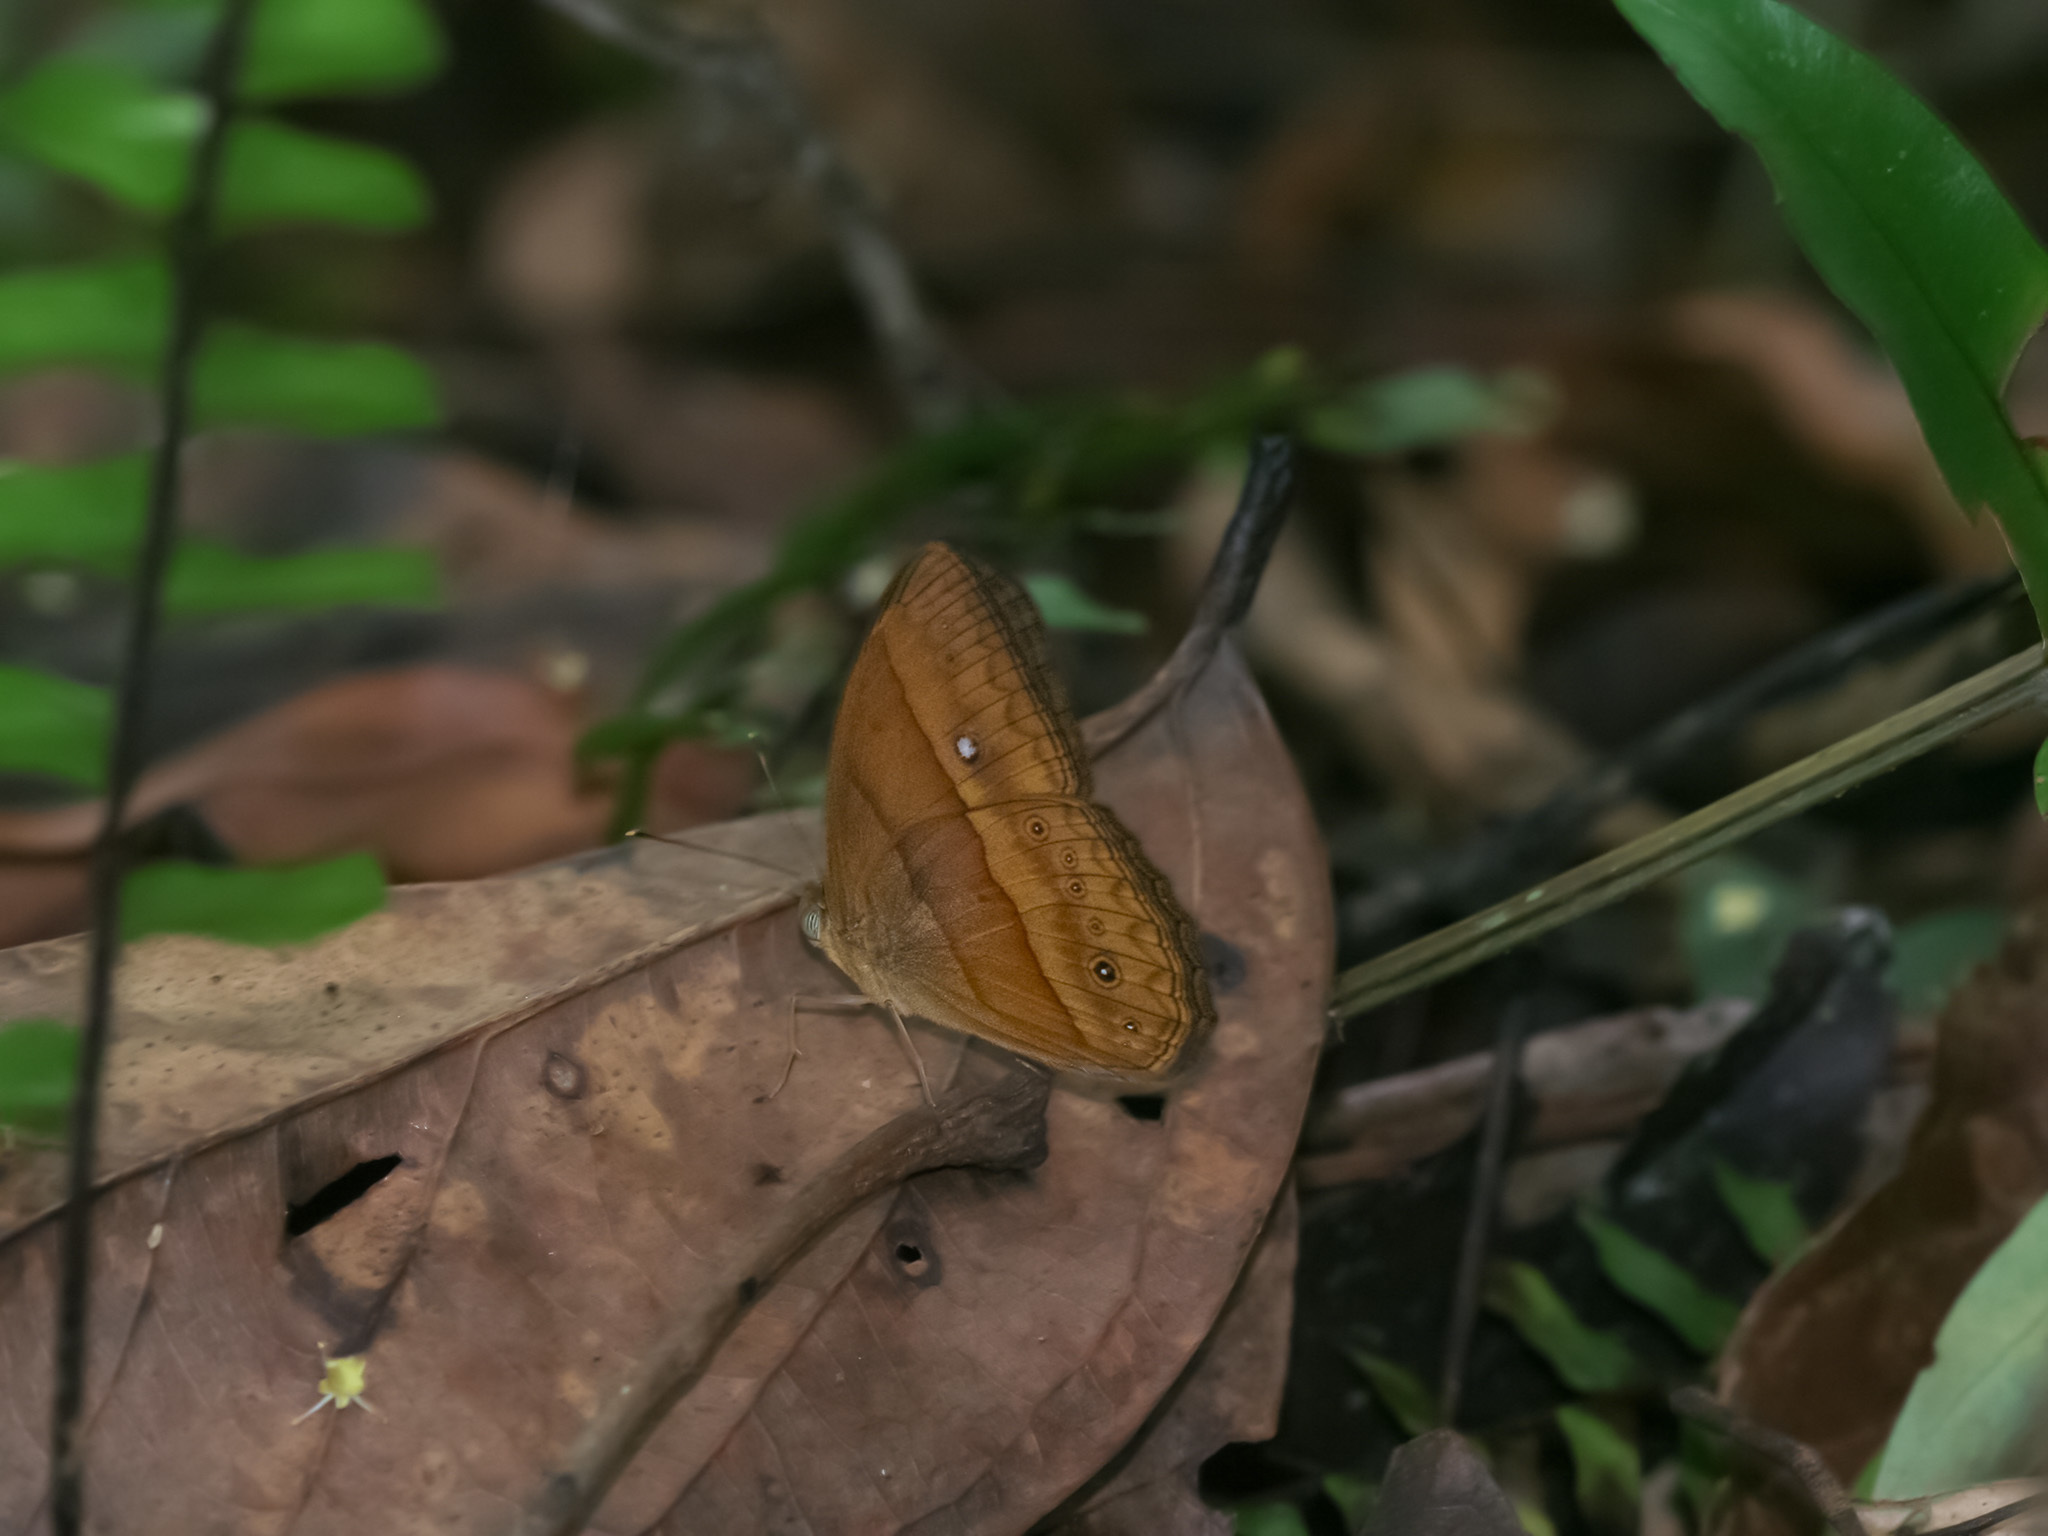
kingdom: Animalia
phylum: Arthropoda
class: Insecta
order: Lepidoptera
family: Nymphalidae
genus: Mycalesis
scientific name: Mycalesis mnasicles
